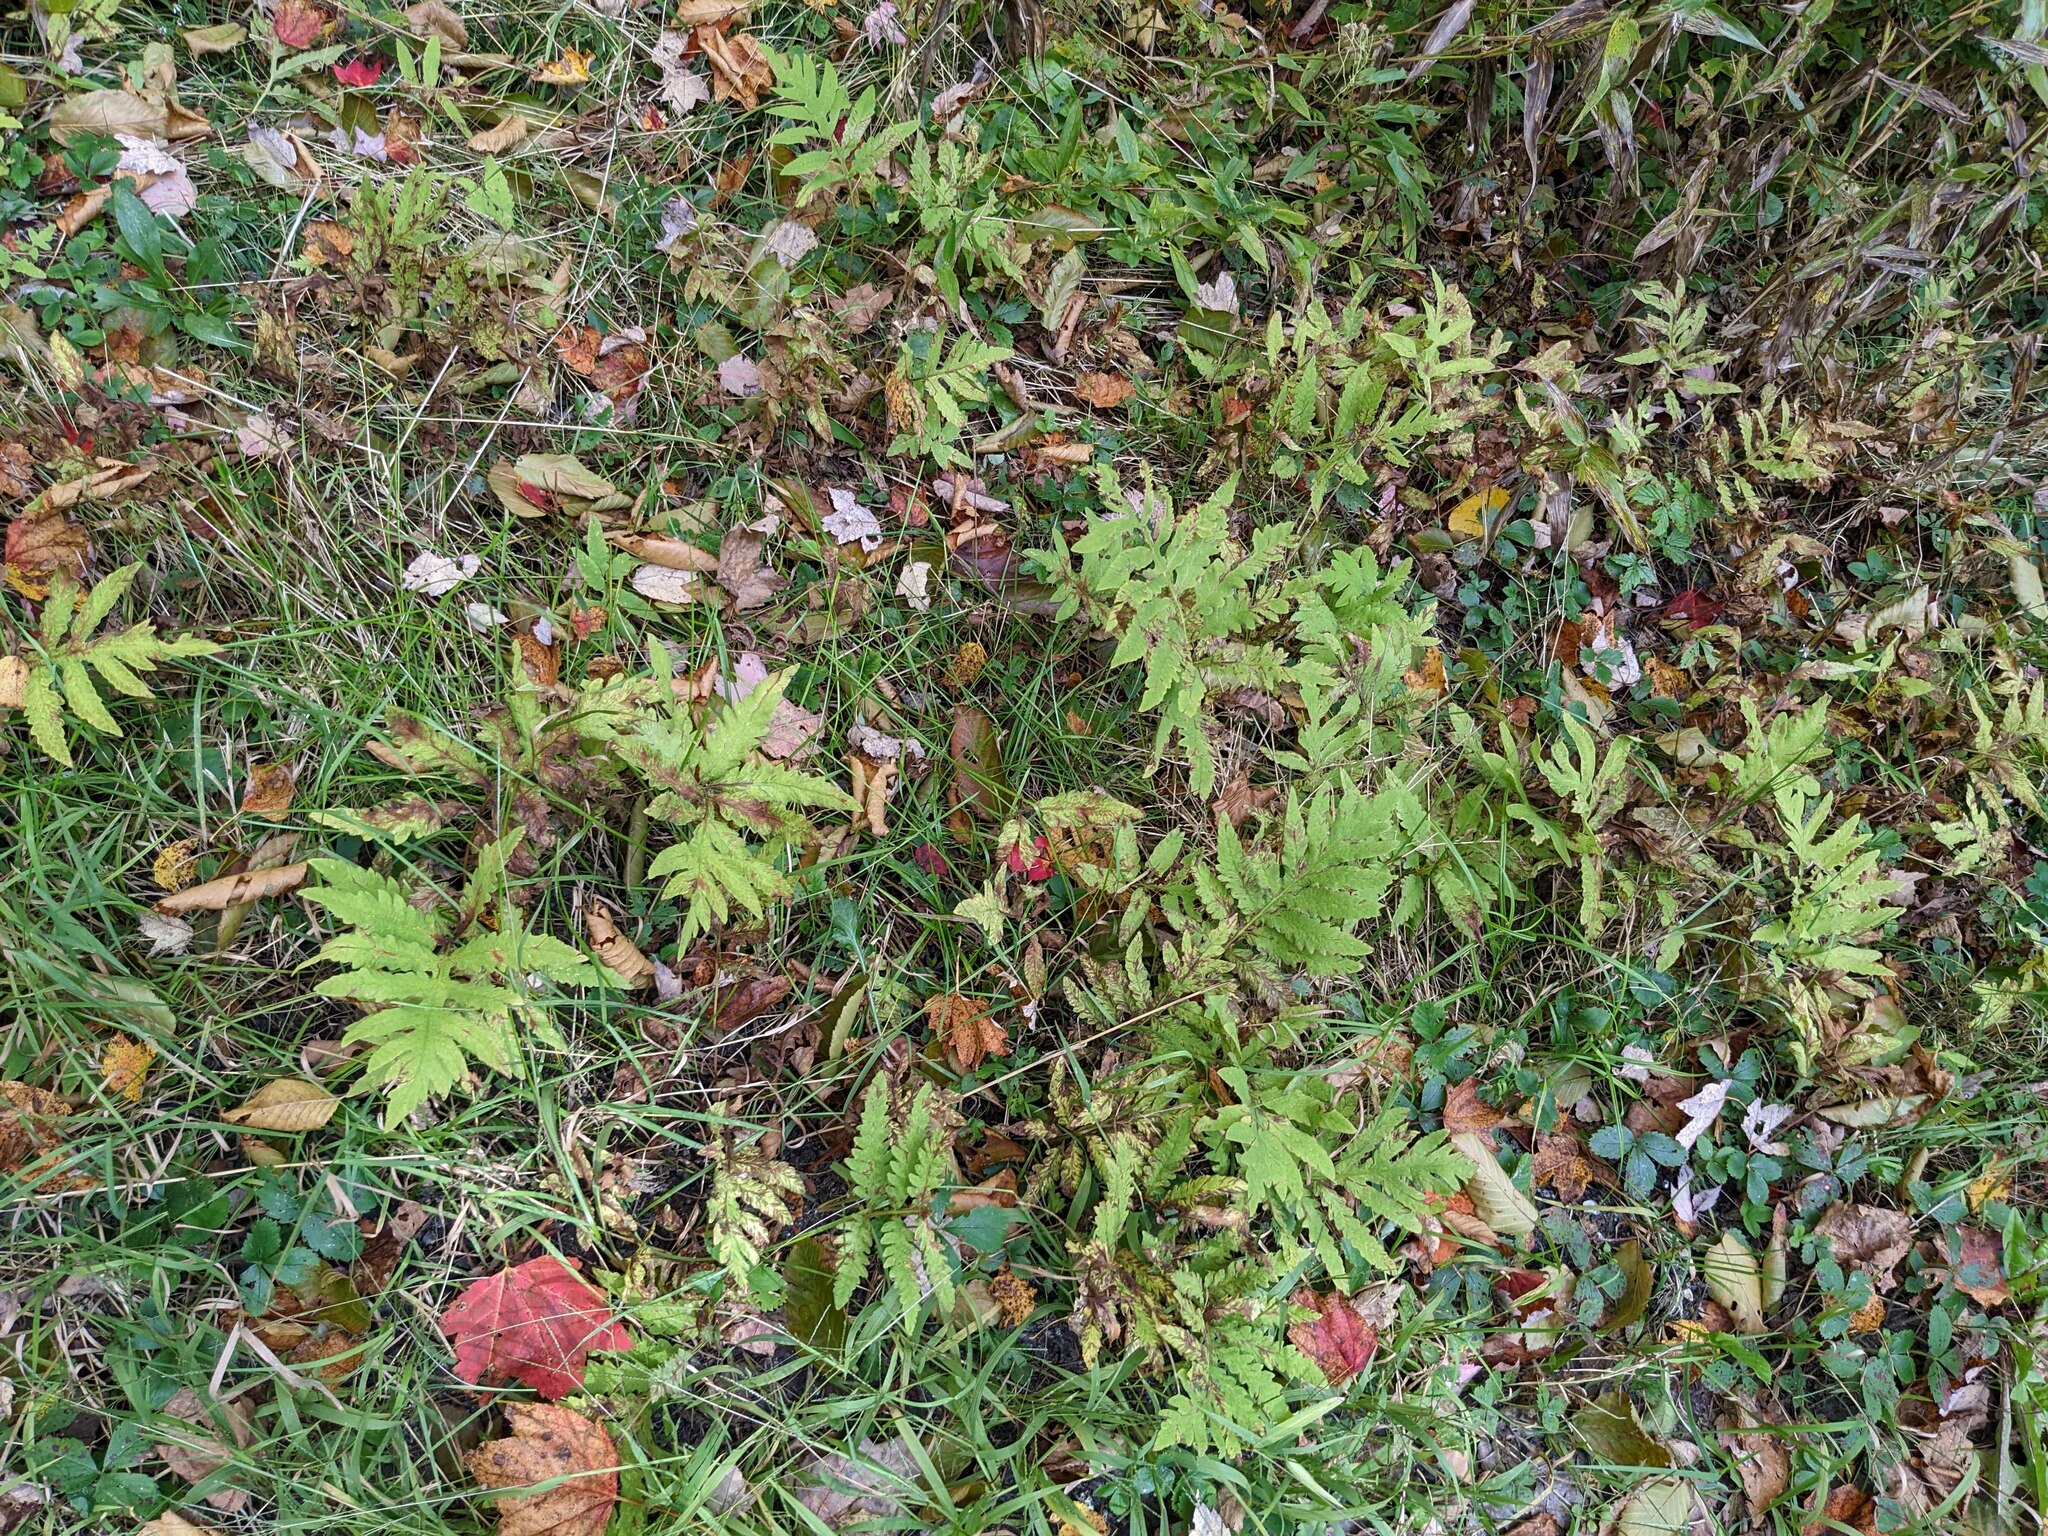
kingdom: Plantae
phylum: Tracheophyta
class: Polypodiopsida
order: Polypodiales
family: Onocleaceae
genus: Onoclea
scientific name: Onoclea sensibilis
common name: Sensitive fern
